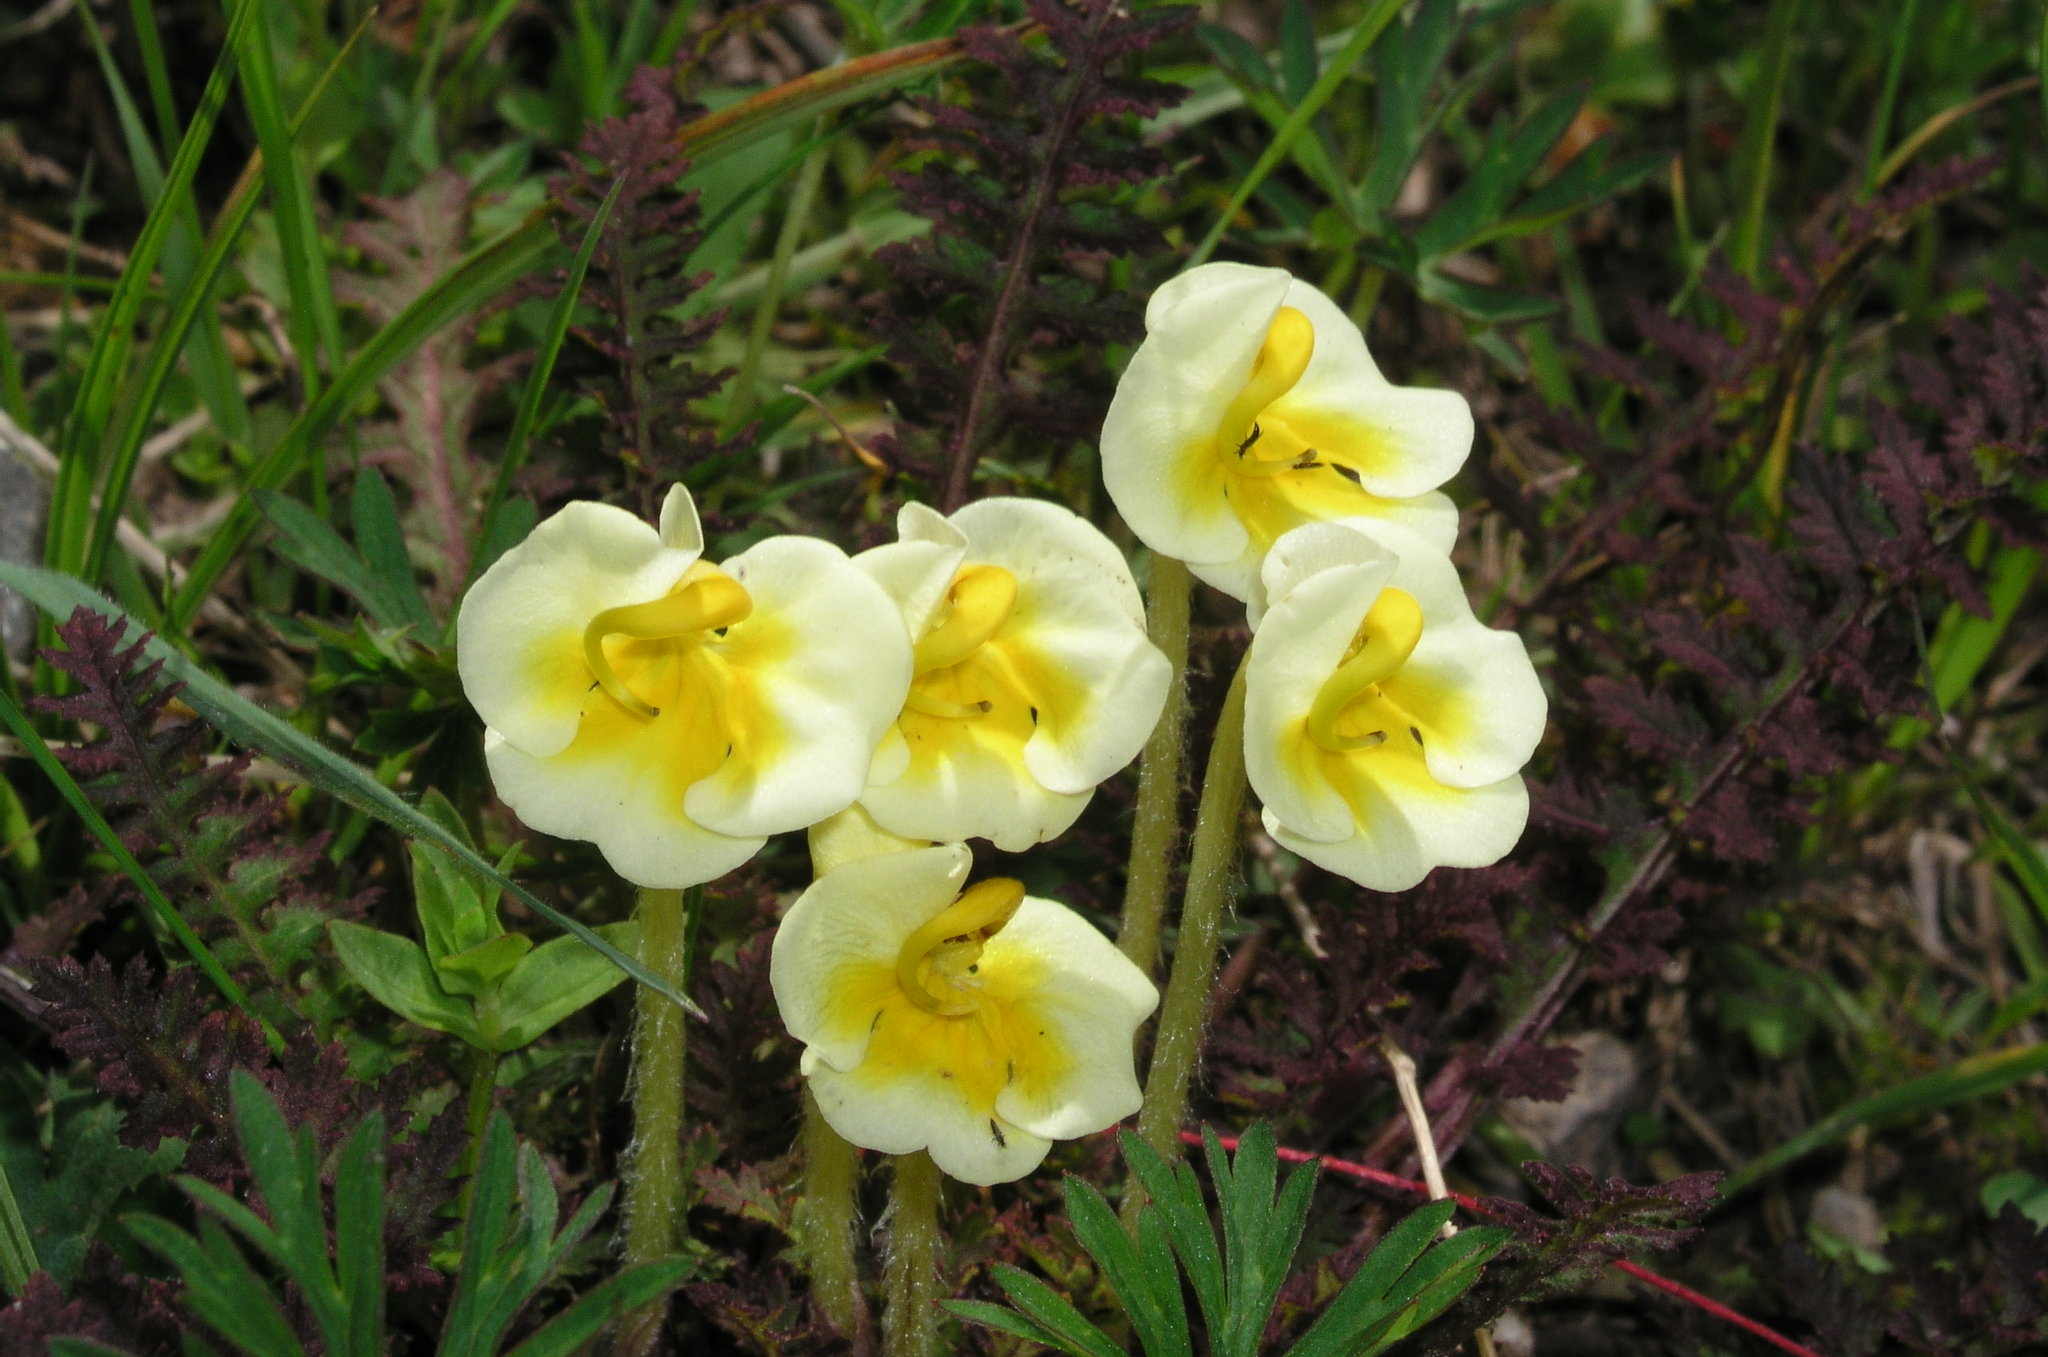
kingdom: Plantae
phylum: Tracheophyta
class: Magnoliopsida
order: Lamiales
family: Orobanchaceae
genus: Pedicularis
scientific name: Pedicularis cranolopha
